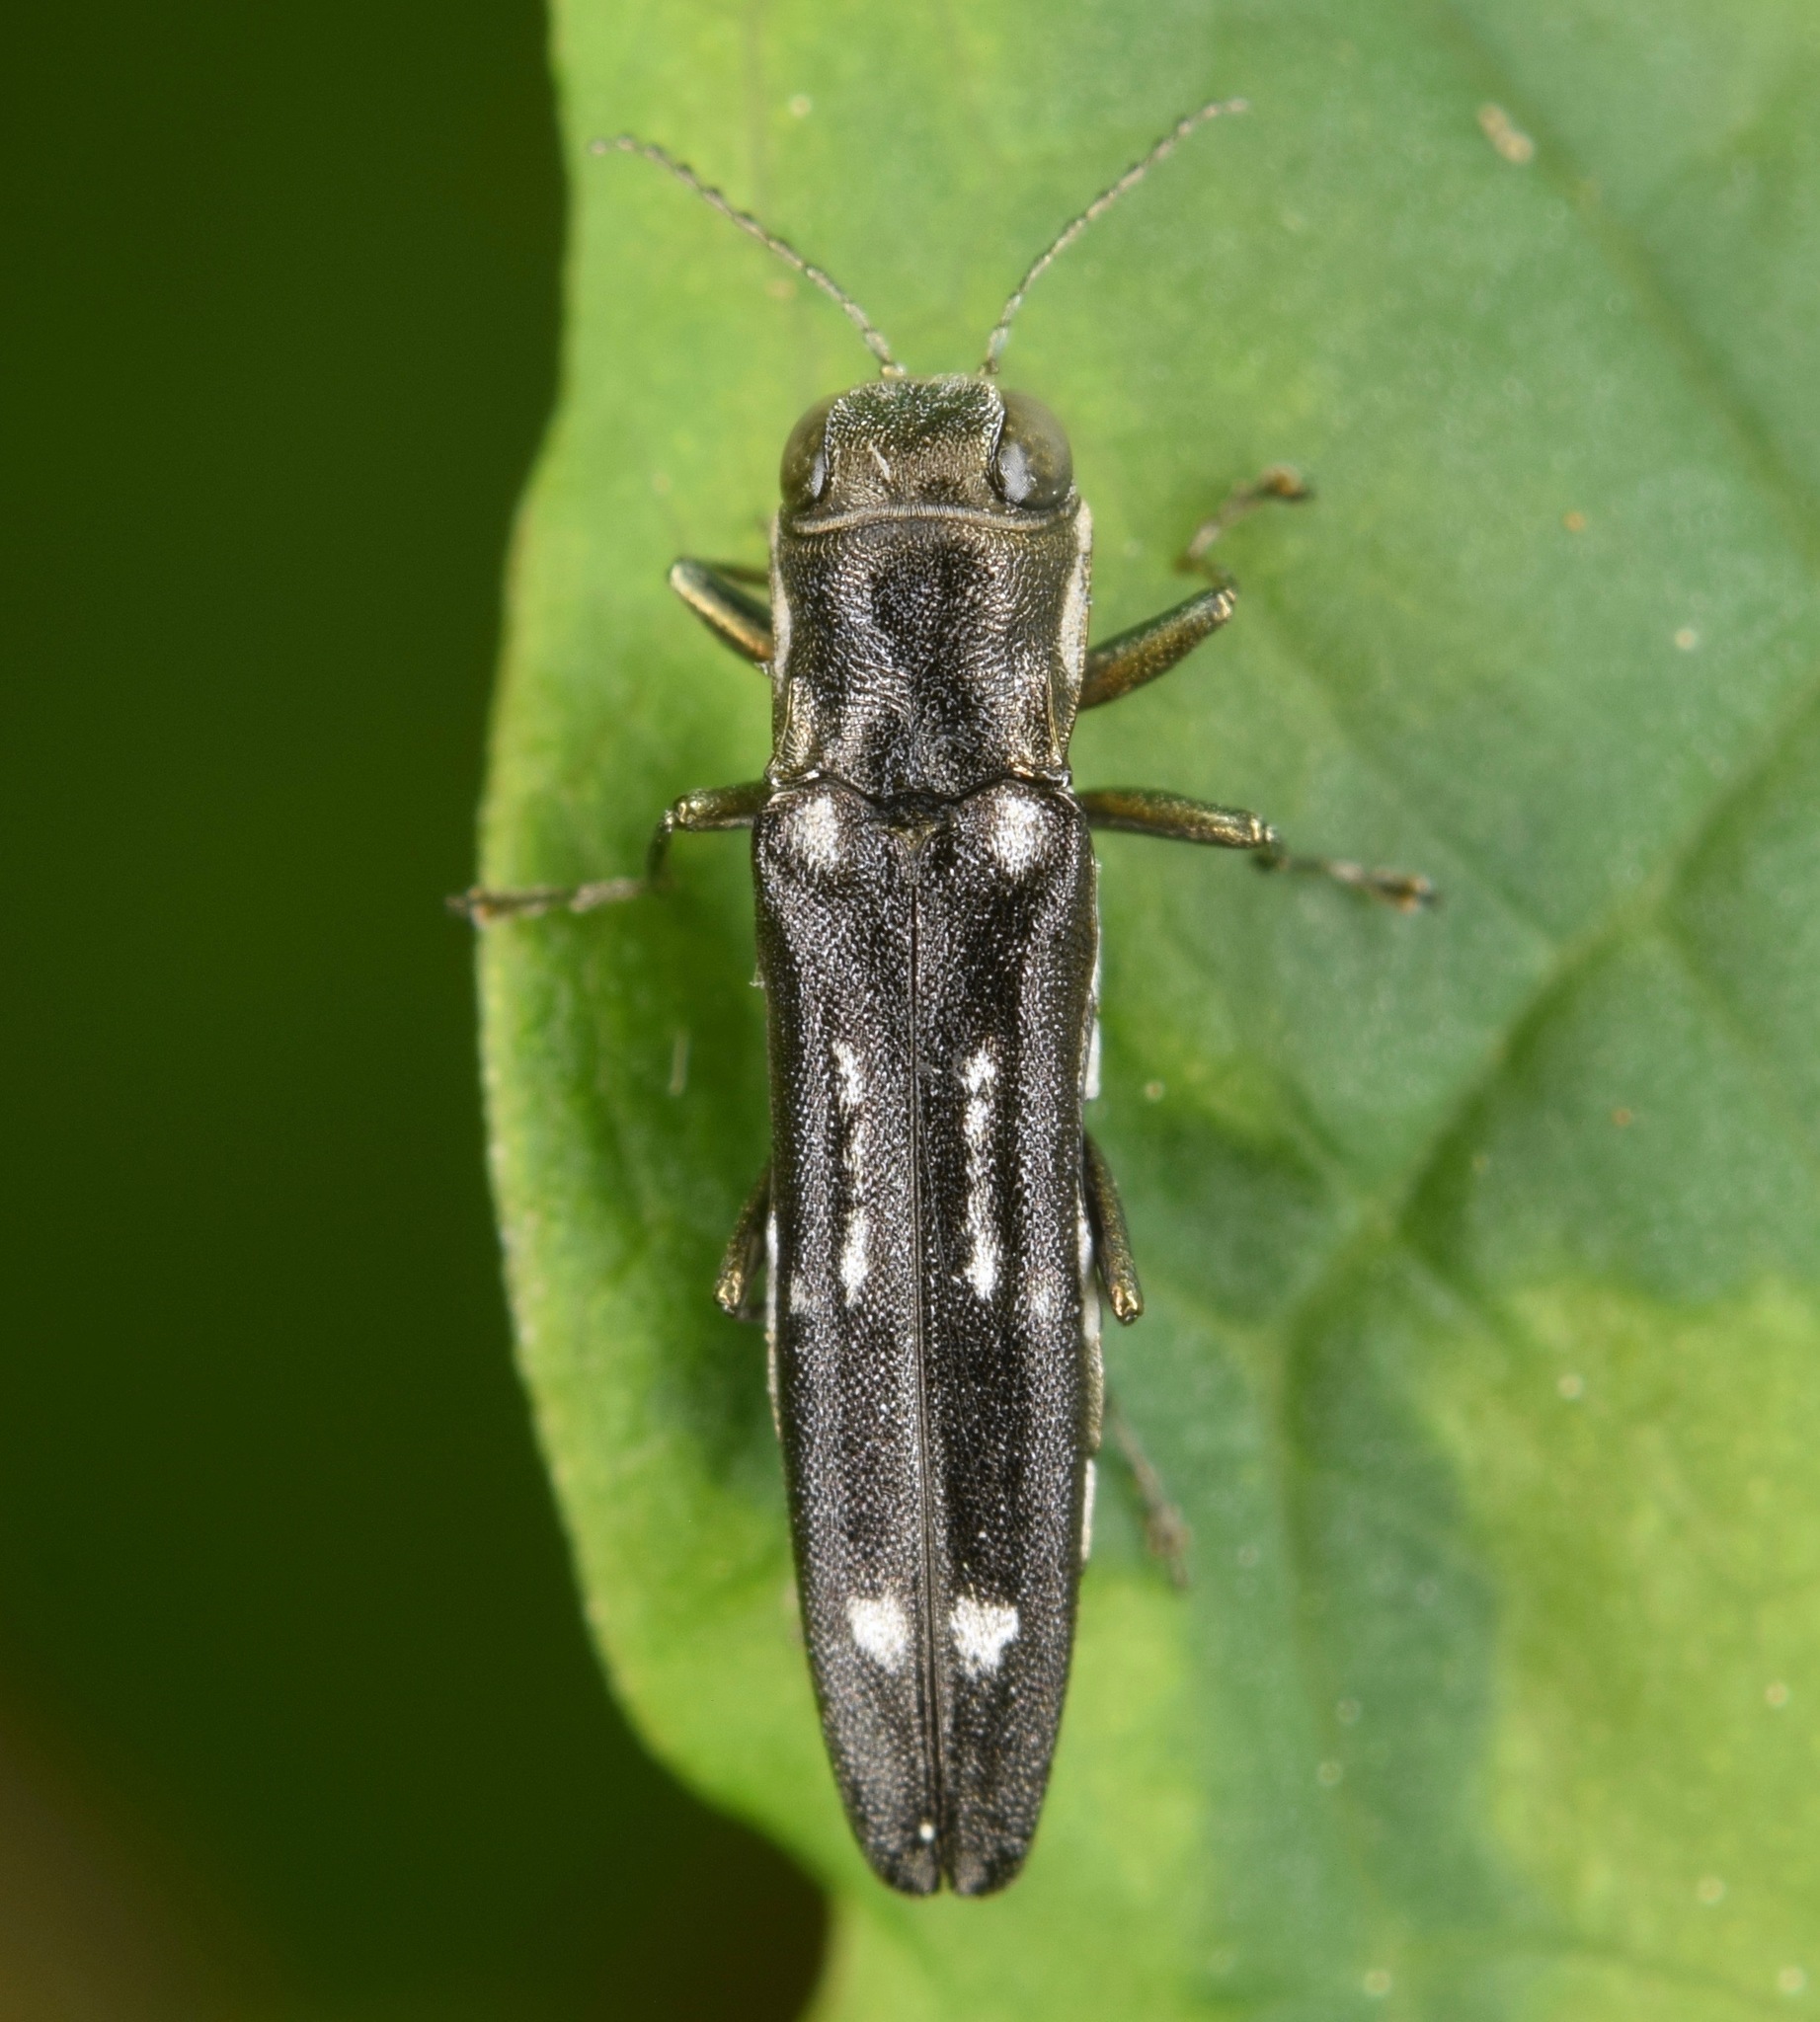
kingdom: Animalia
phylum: Arthropoda
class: Insecta
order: Coleoptera
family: Buprestidae
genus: Agrilus
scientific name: Agrilus obsoletoguttatus
